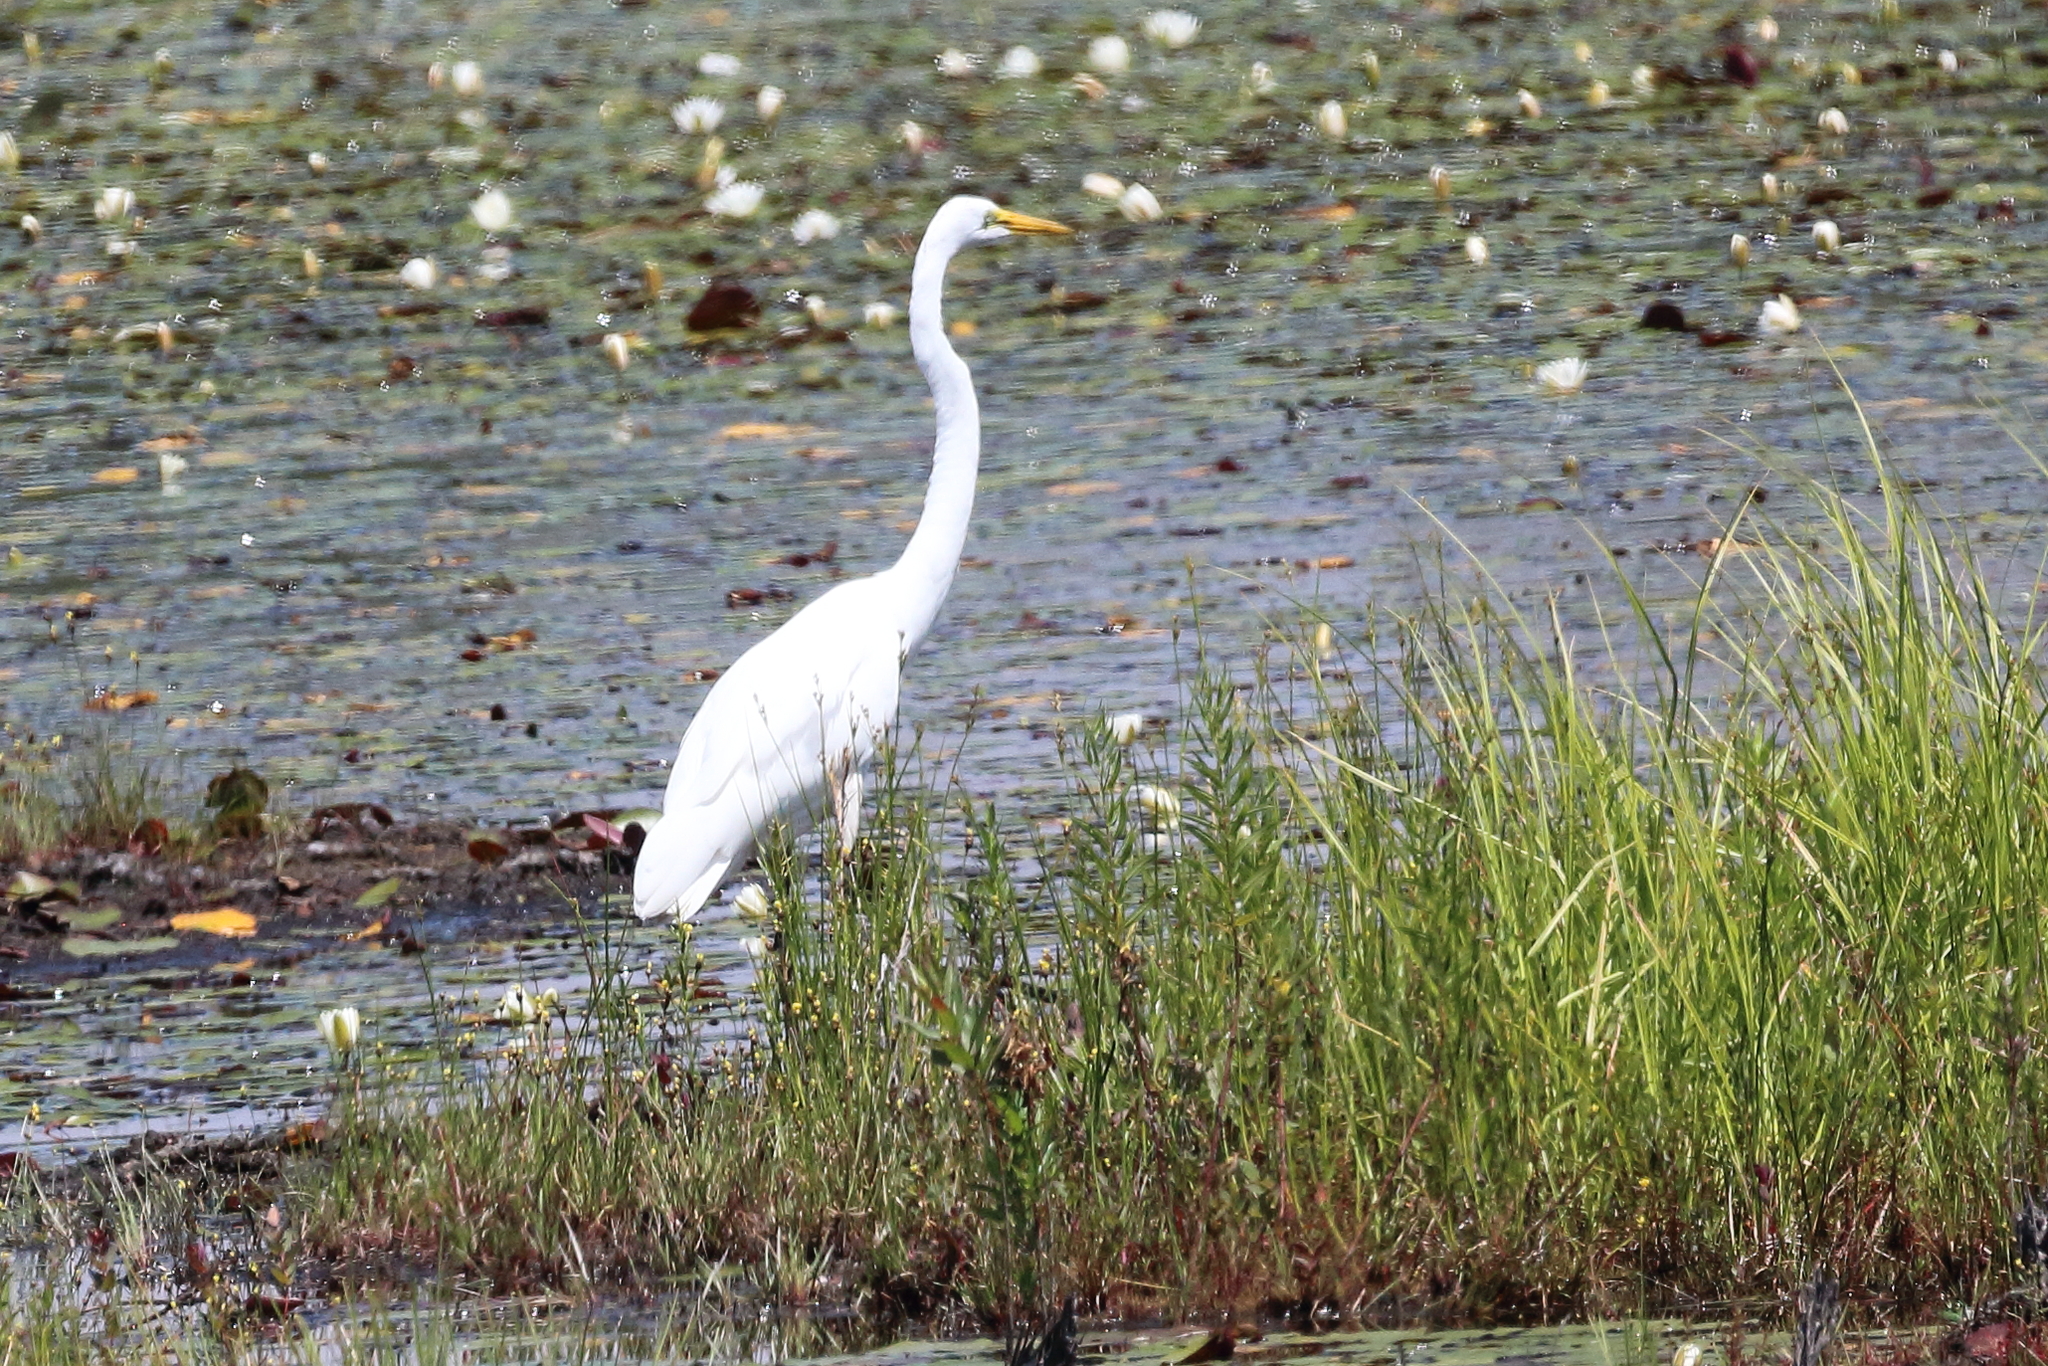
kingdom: Animalia
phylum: Chordata
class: Aves
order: Pelecaniformes
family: Ardeidae
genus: Ardea
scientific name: Ardea alba
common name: Great egret
